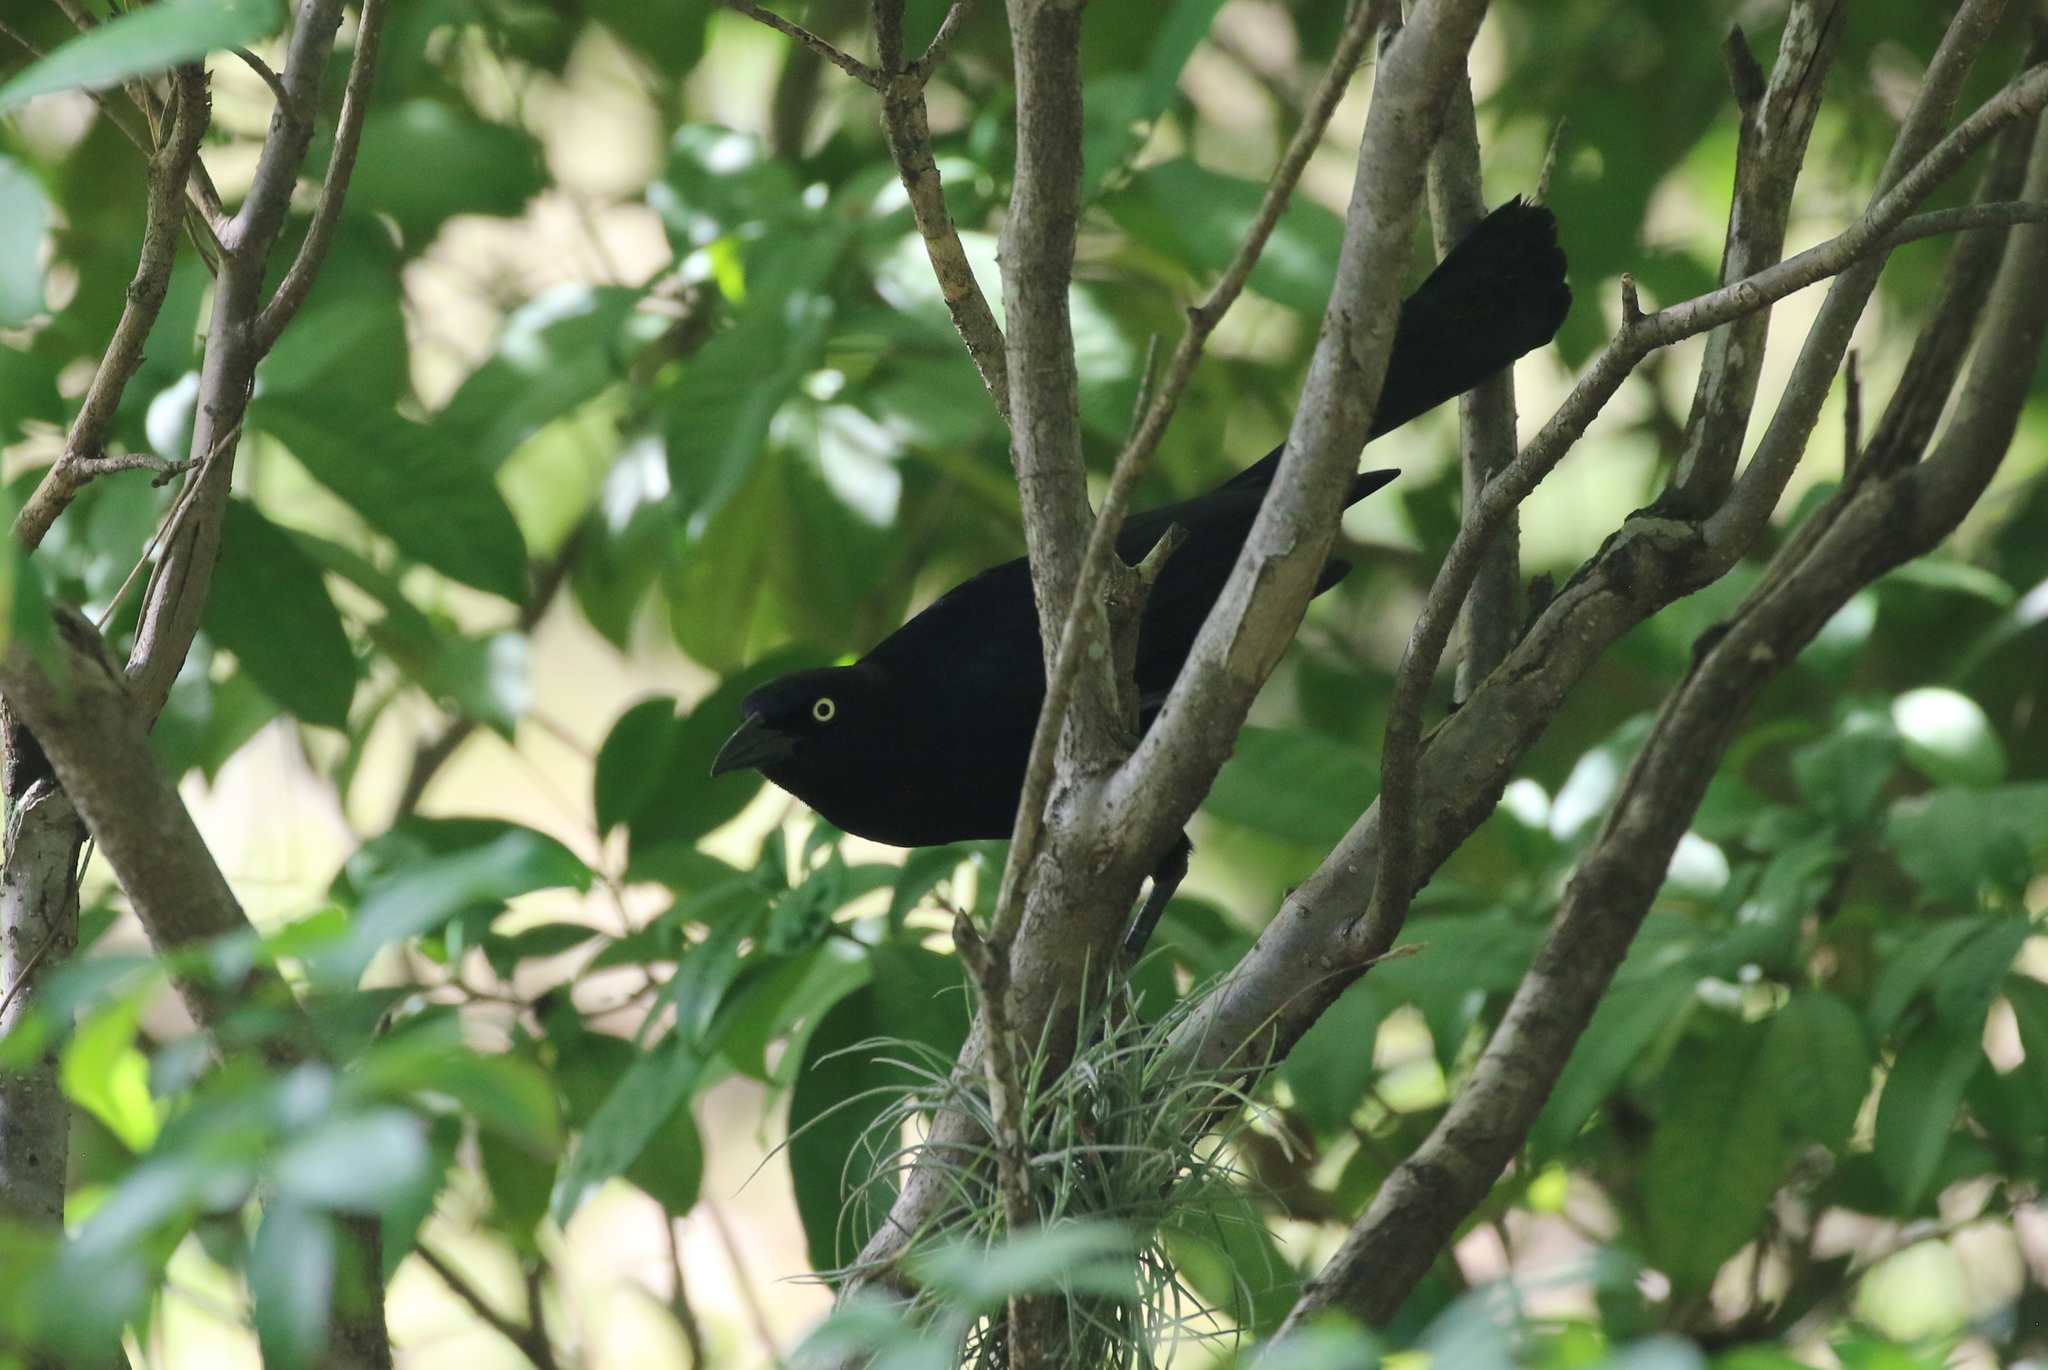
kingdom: Animalia
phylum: Chordata
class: Aves
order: Passeriformes
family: Icteridae
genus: Quiscalus
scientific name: Quiscalus niger
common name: Greater antillean grackle
